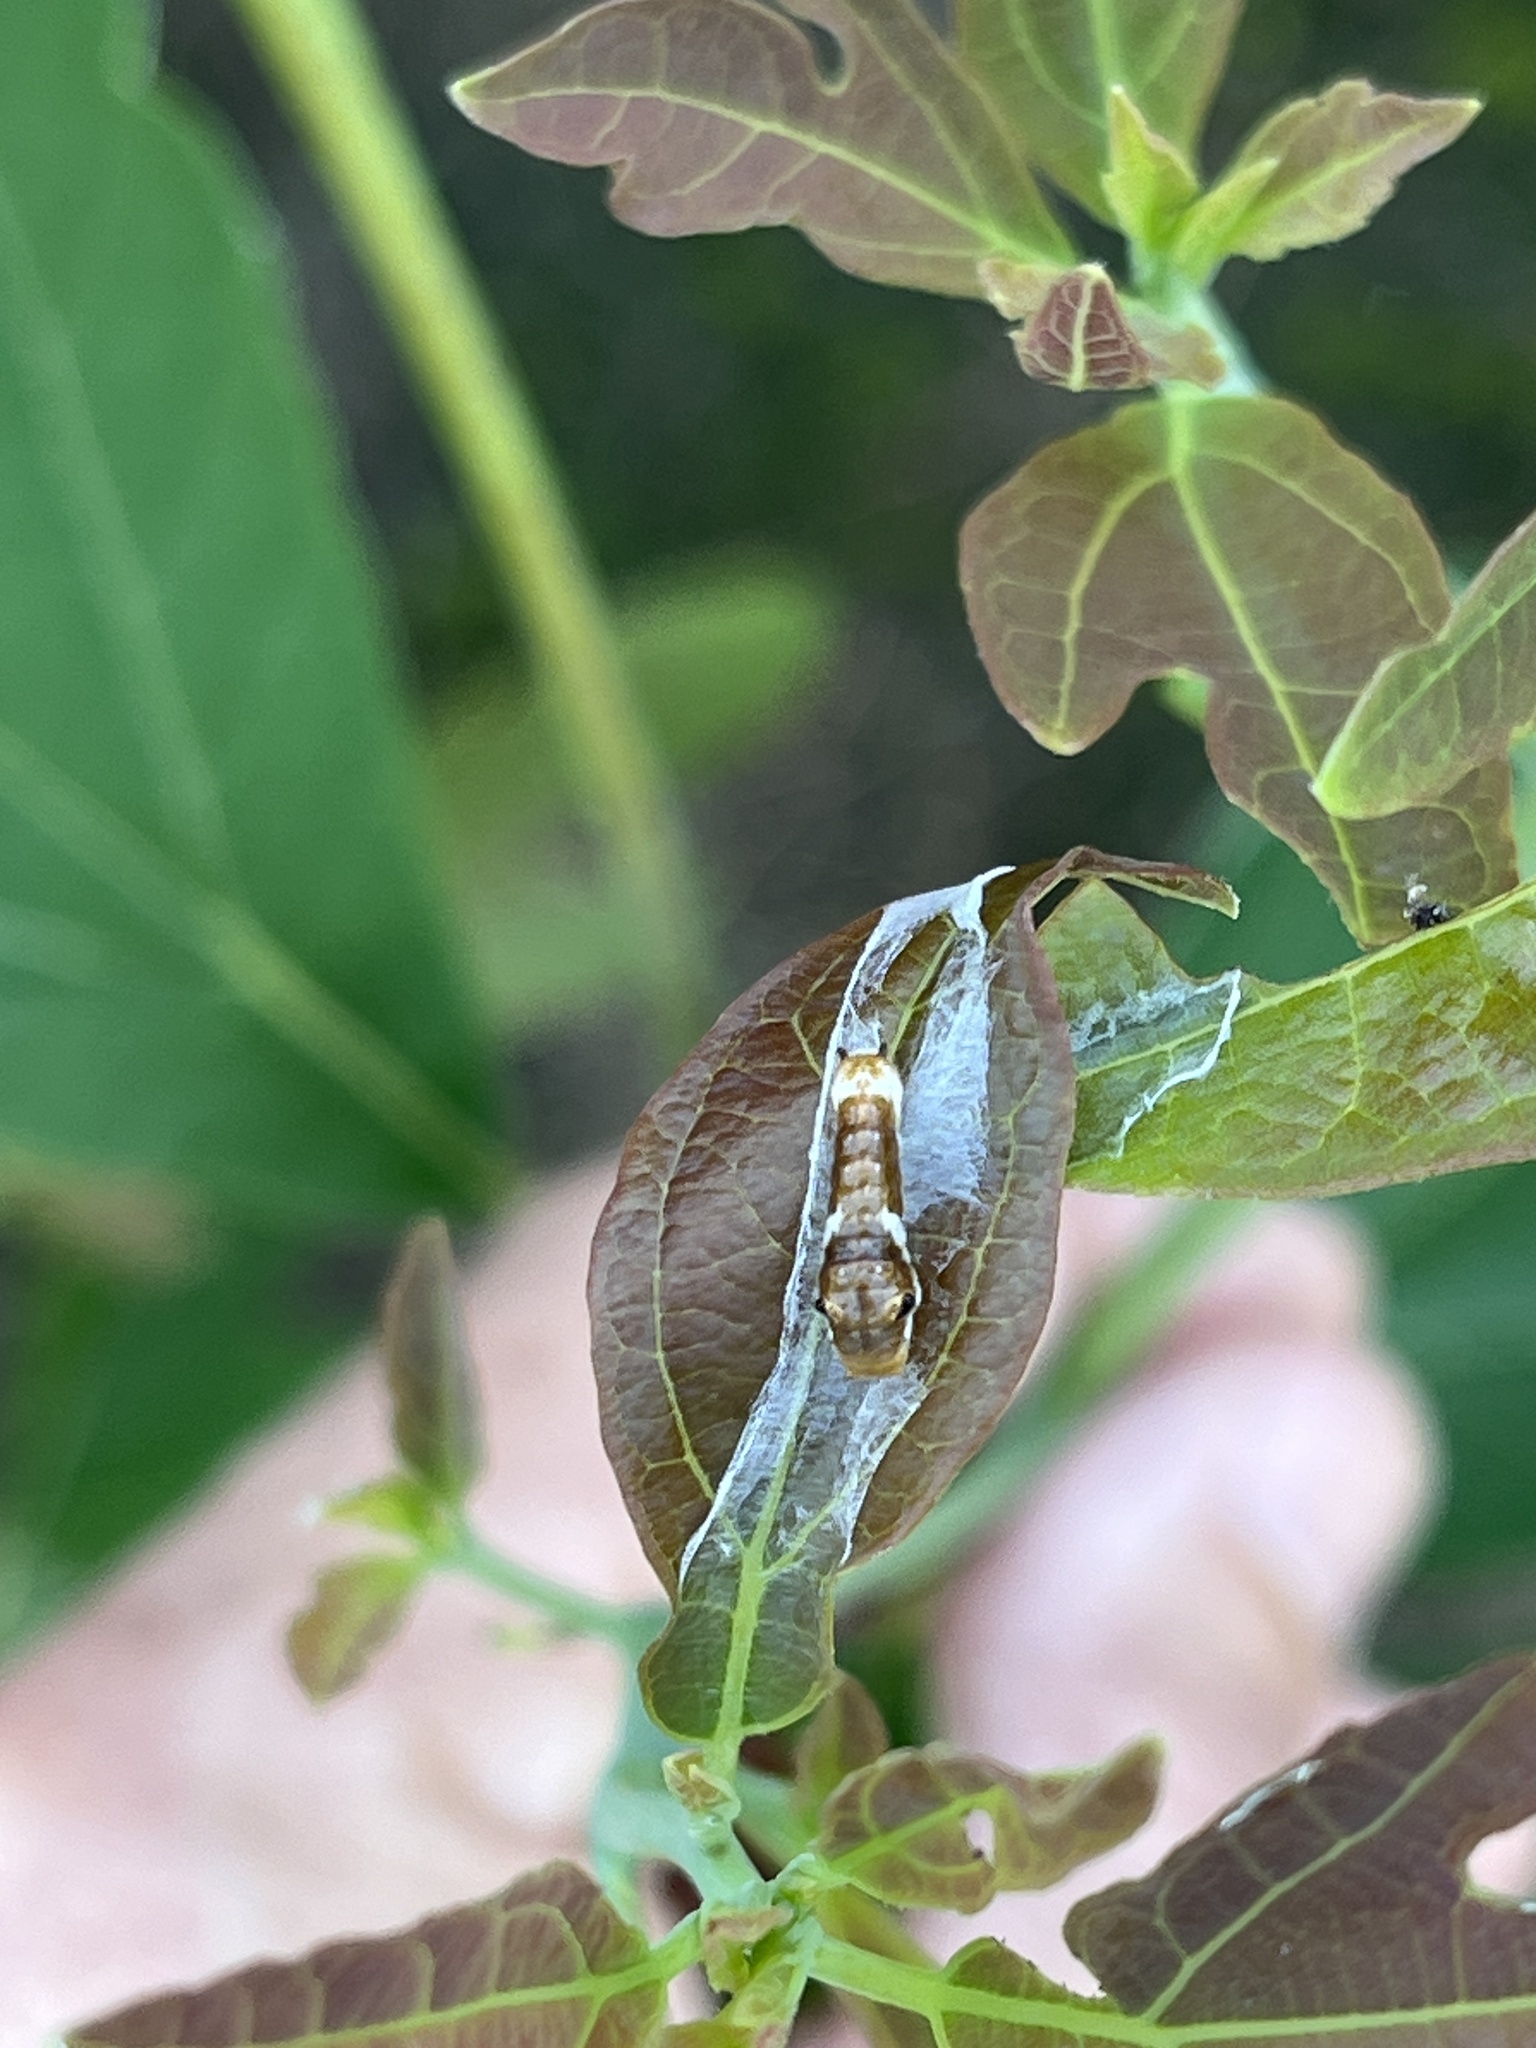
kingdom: Animalia
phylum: Arthropoda
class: Insecta
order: Lepidoptera
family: Papilionidae
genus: Papilio
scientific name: Papilio troilus
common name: Spicebush swallowtail
